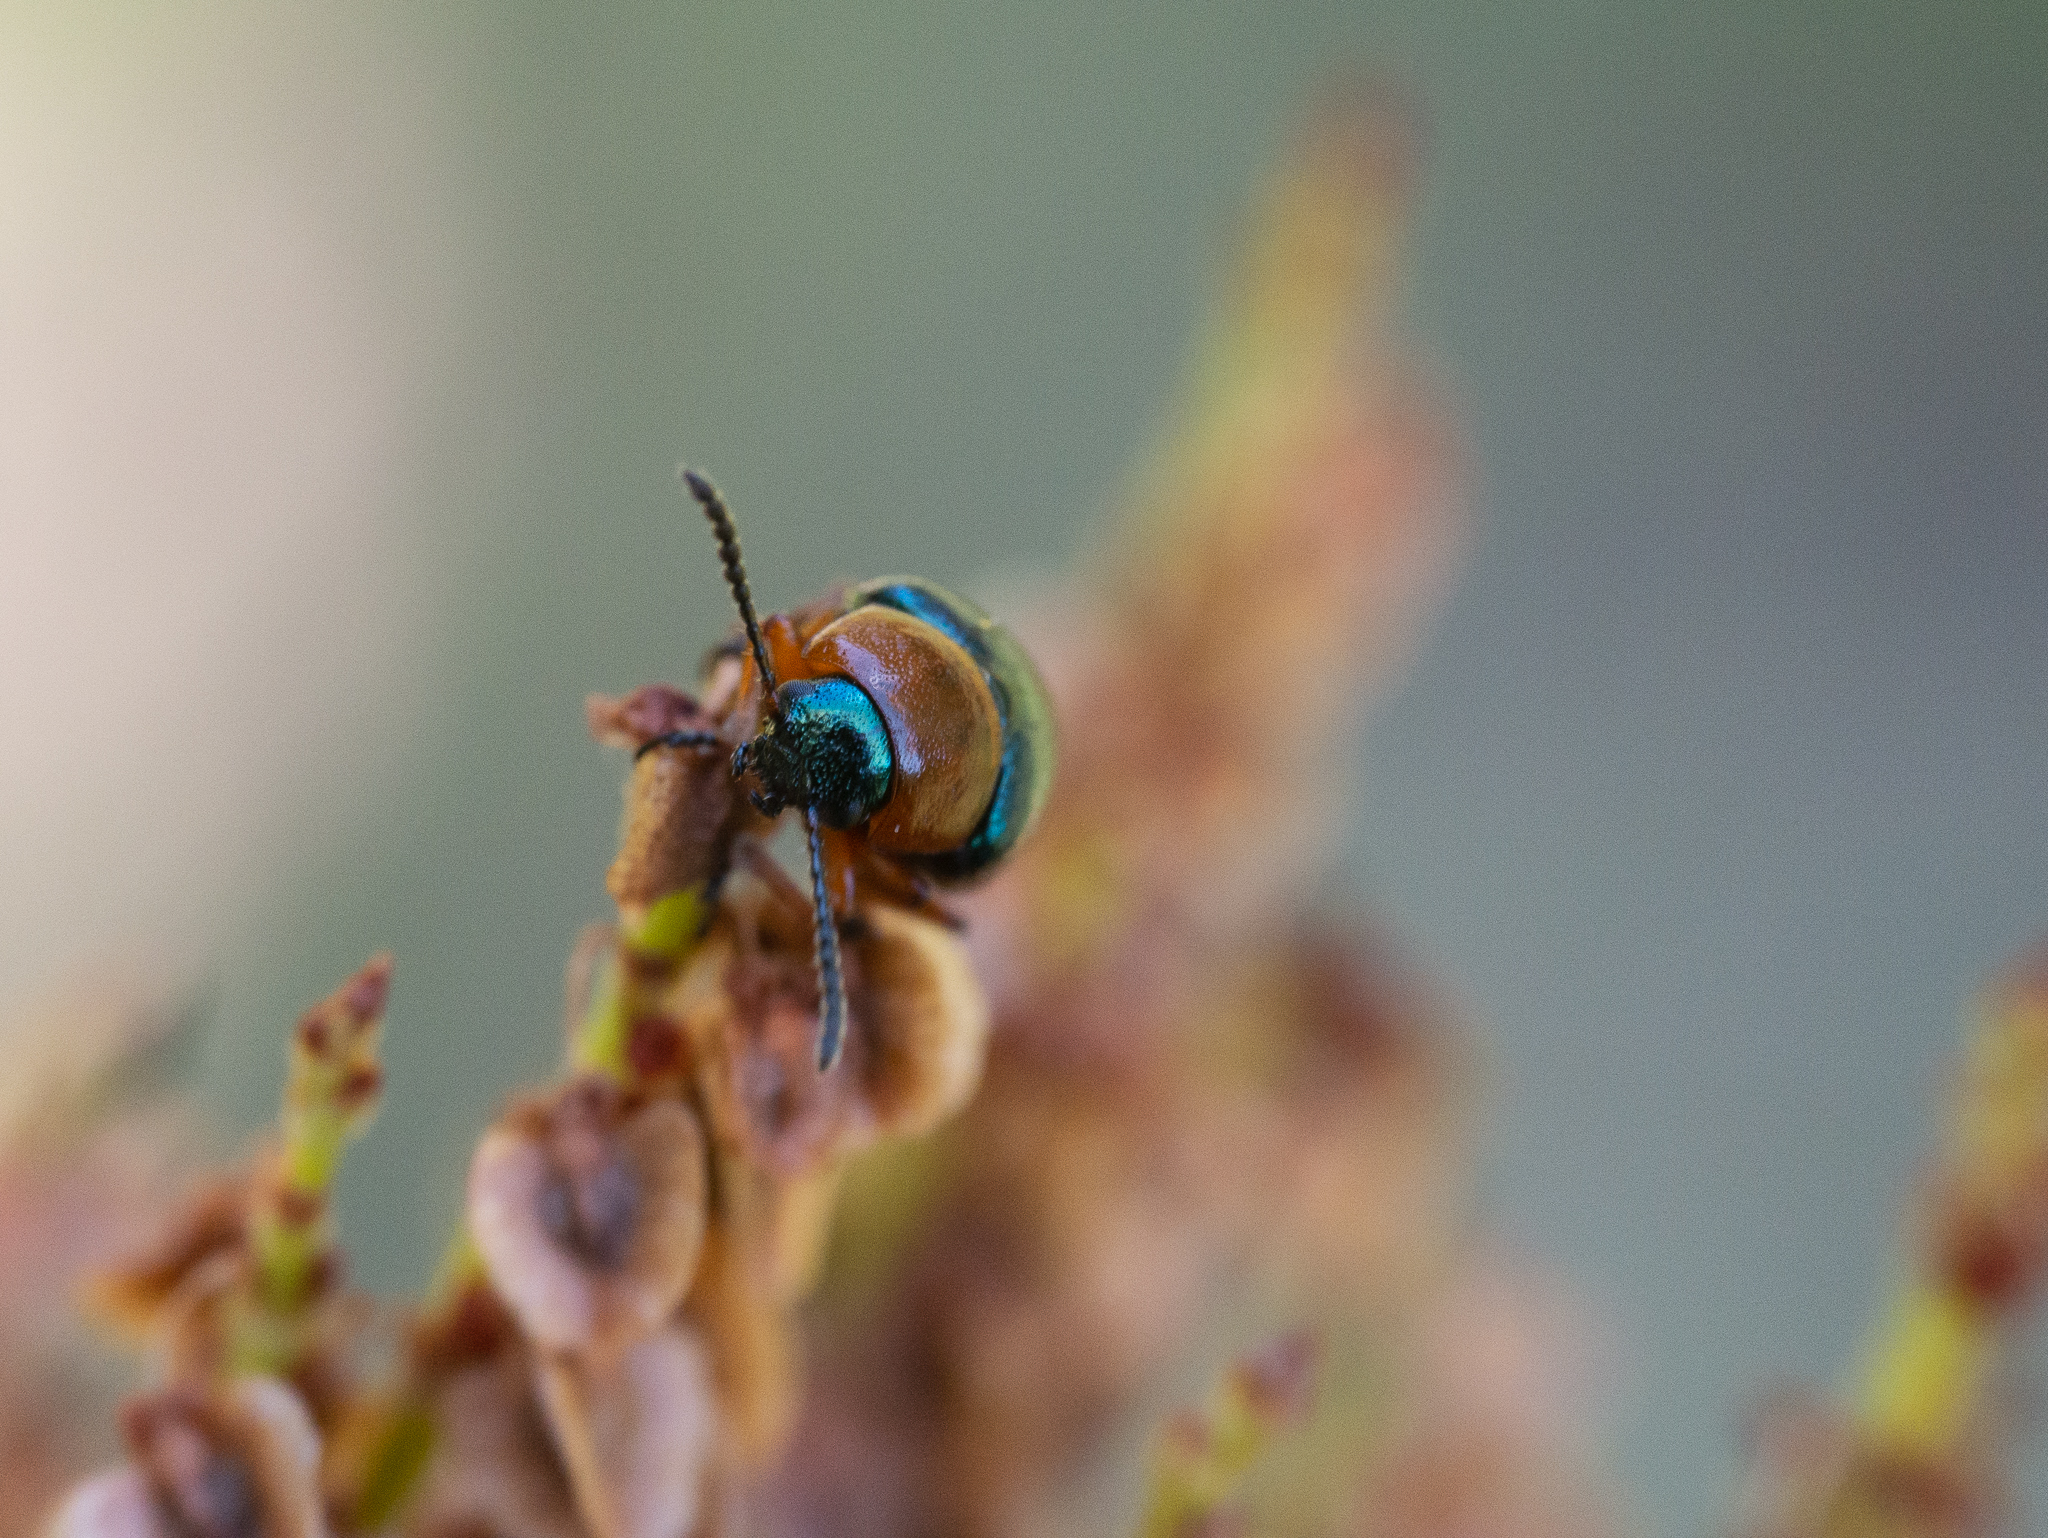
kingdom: Animalia
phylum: Arthropoda
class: Insecta
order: Coleoptera
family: Chrysomelidae
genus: Gastrophysa
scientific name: Gastrophysa polygoni
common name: Knotweed leaf beetle
